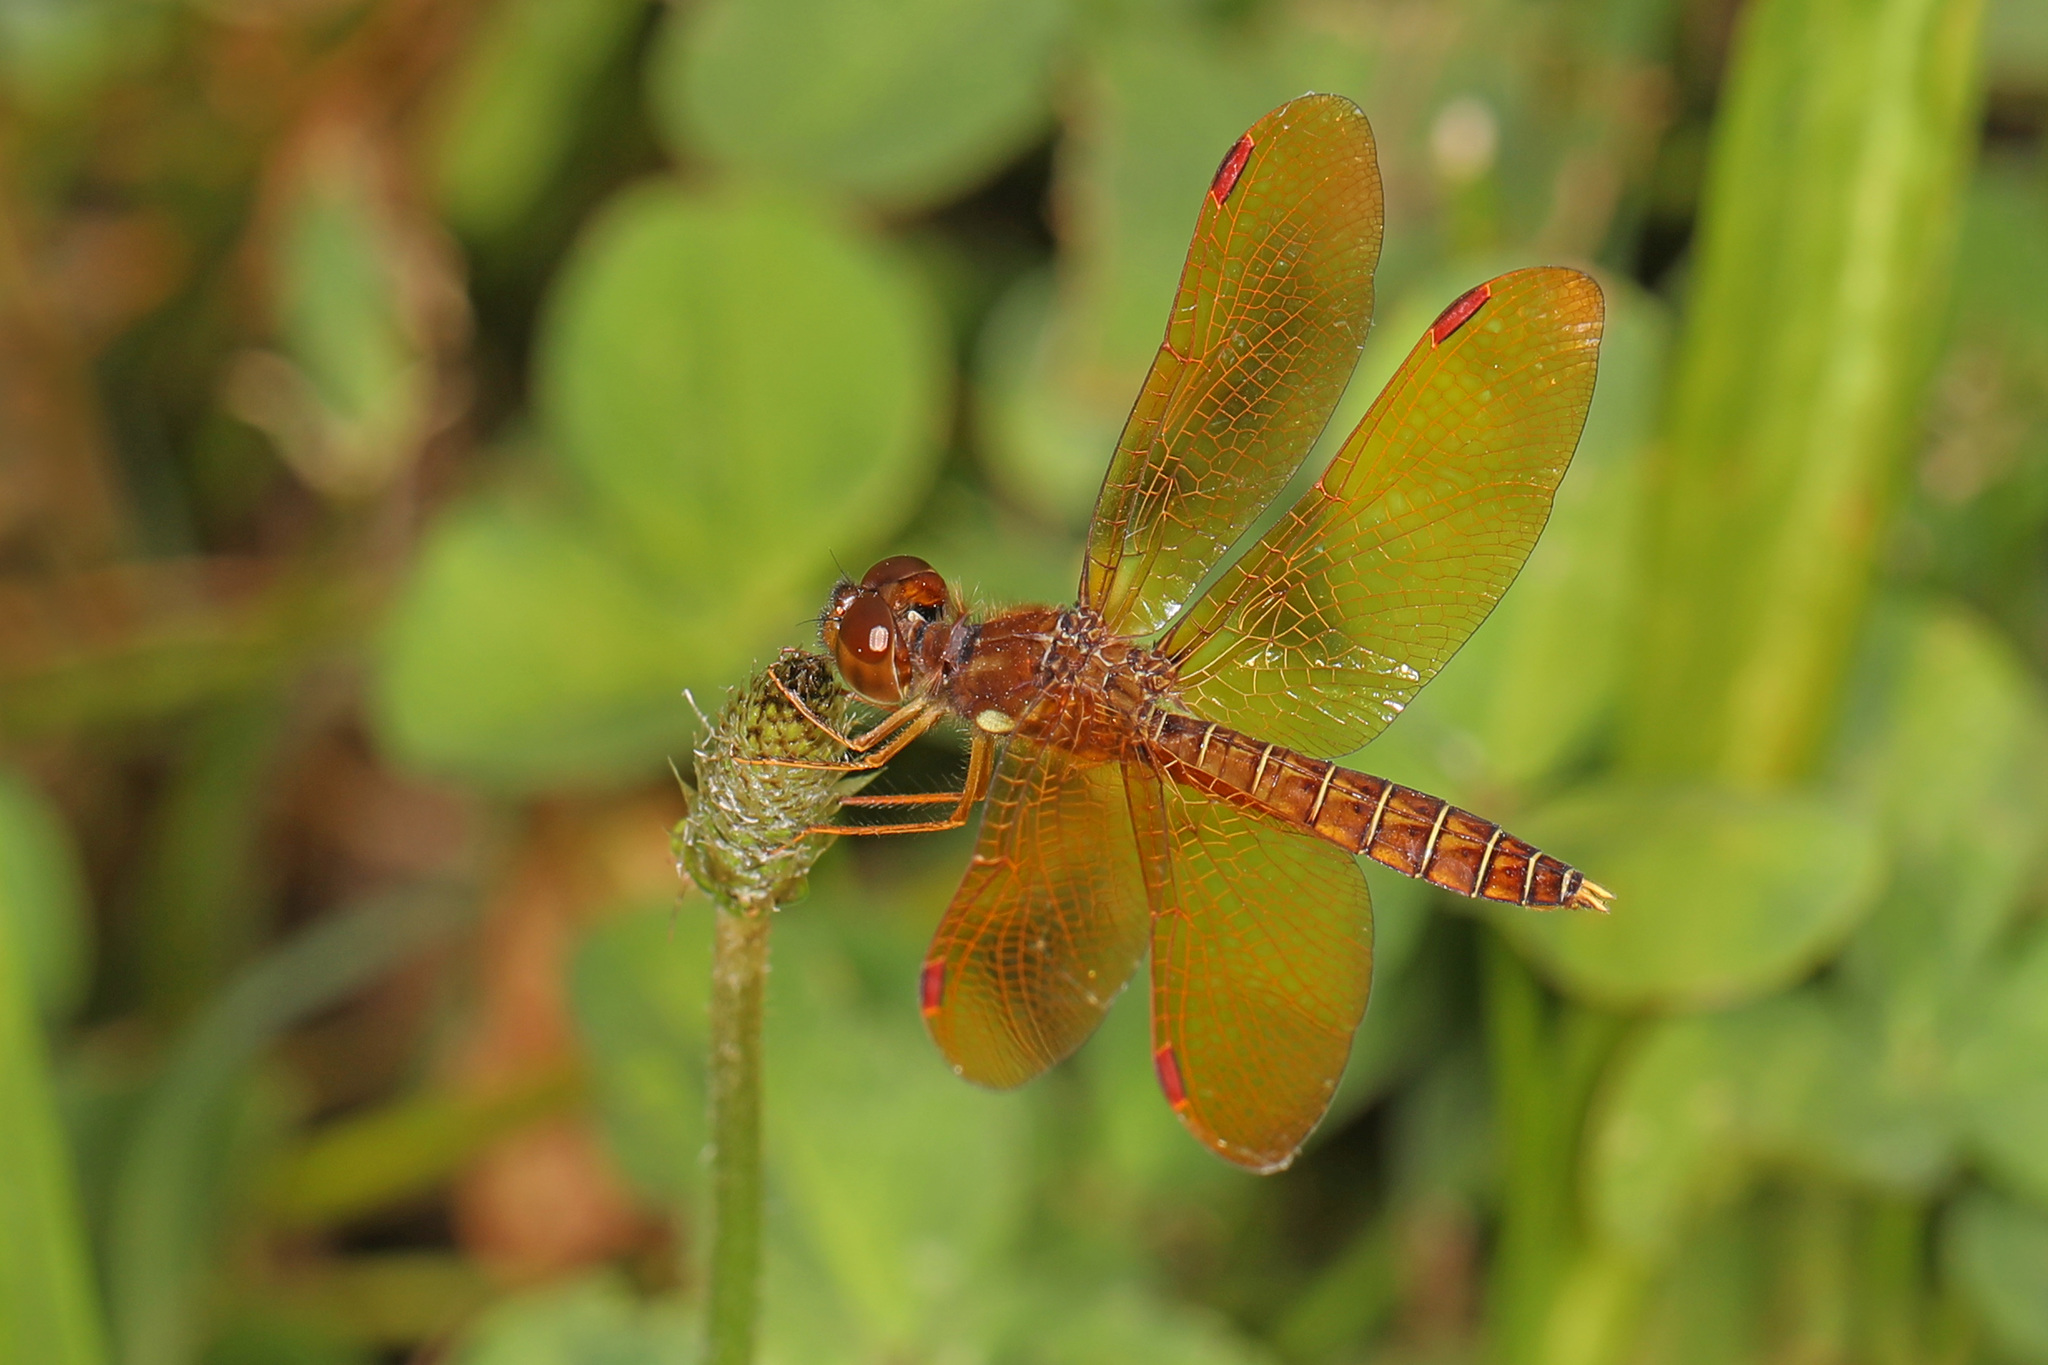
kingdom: Animalia
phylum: Arthropoda
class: Insecta
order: Odonata
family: Libellulidae
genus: Perithemis
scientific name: Perithemis tenera
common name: Eastern amberwing
